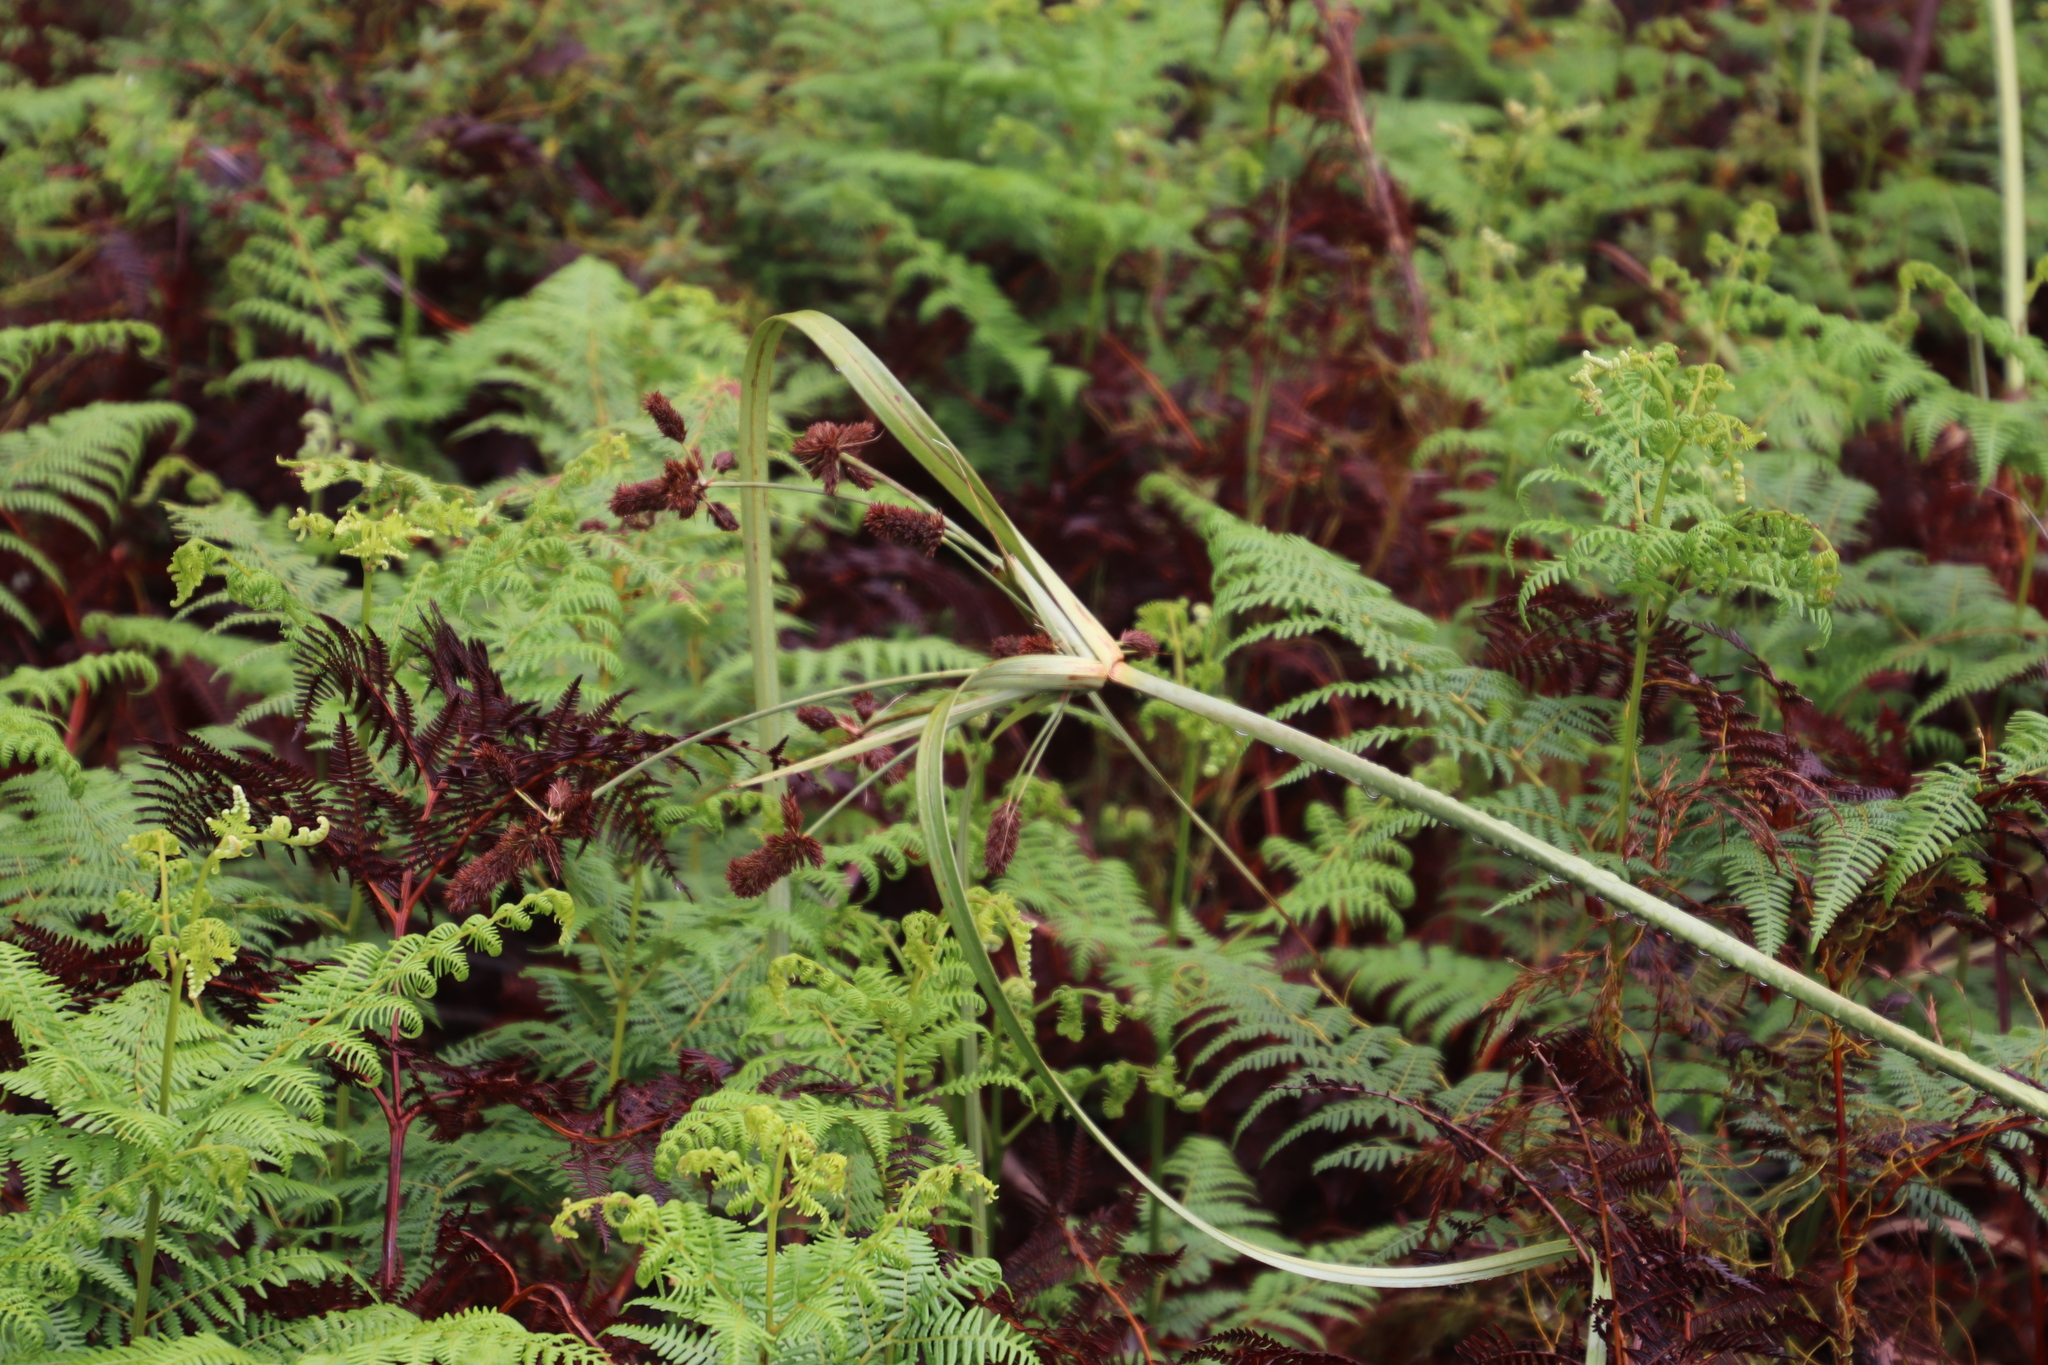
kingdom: Plantae
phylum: Tracheophyta
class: Liliopsida
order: Poales
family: Cyperaceae
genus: Cyperus
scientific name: Cyperus thunbergii
